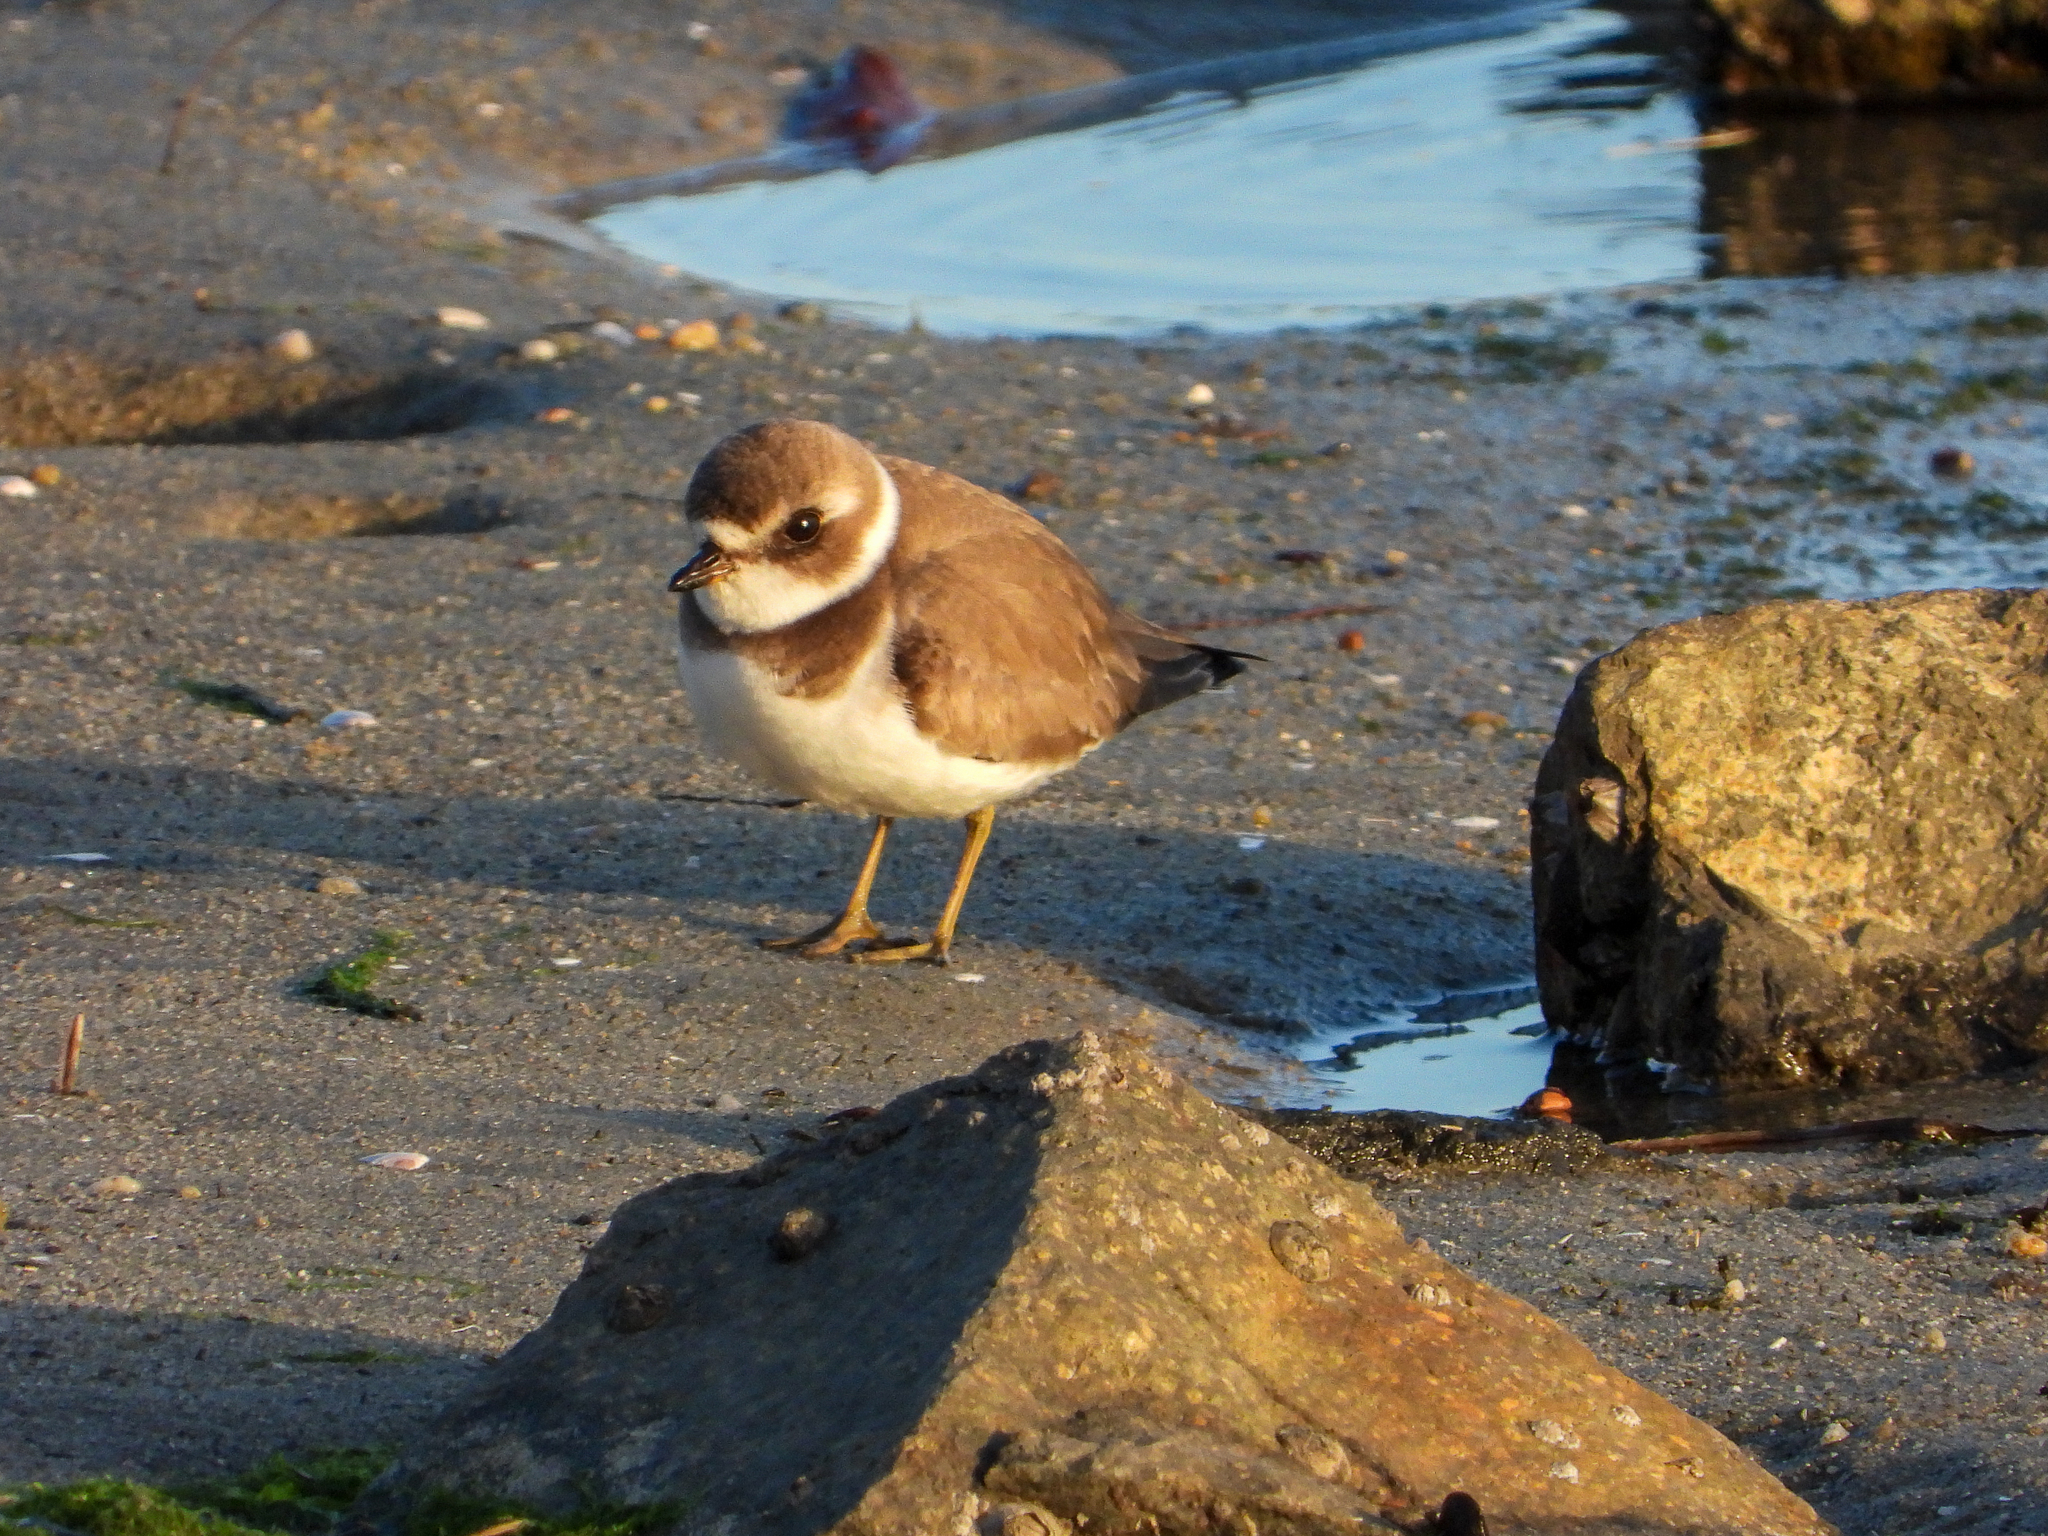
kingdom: Animalia
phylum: Chordata
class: Aves
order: Charadriiformes
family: Charadriidae
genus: Charadrius
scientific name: Charadrius semipalmatus
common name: Semipalmated plover
